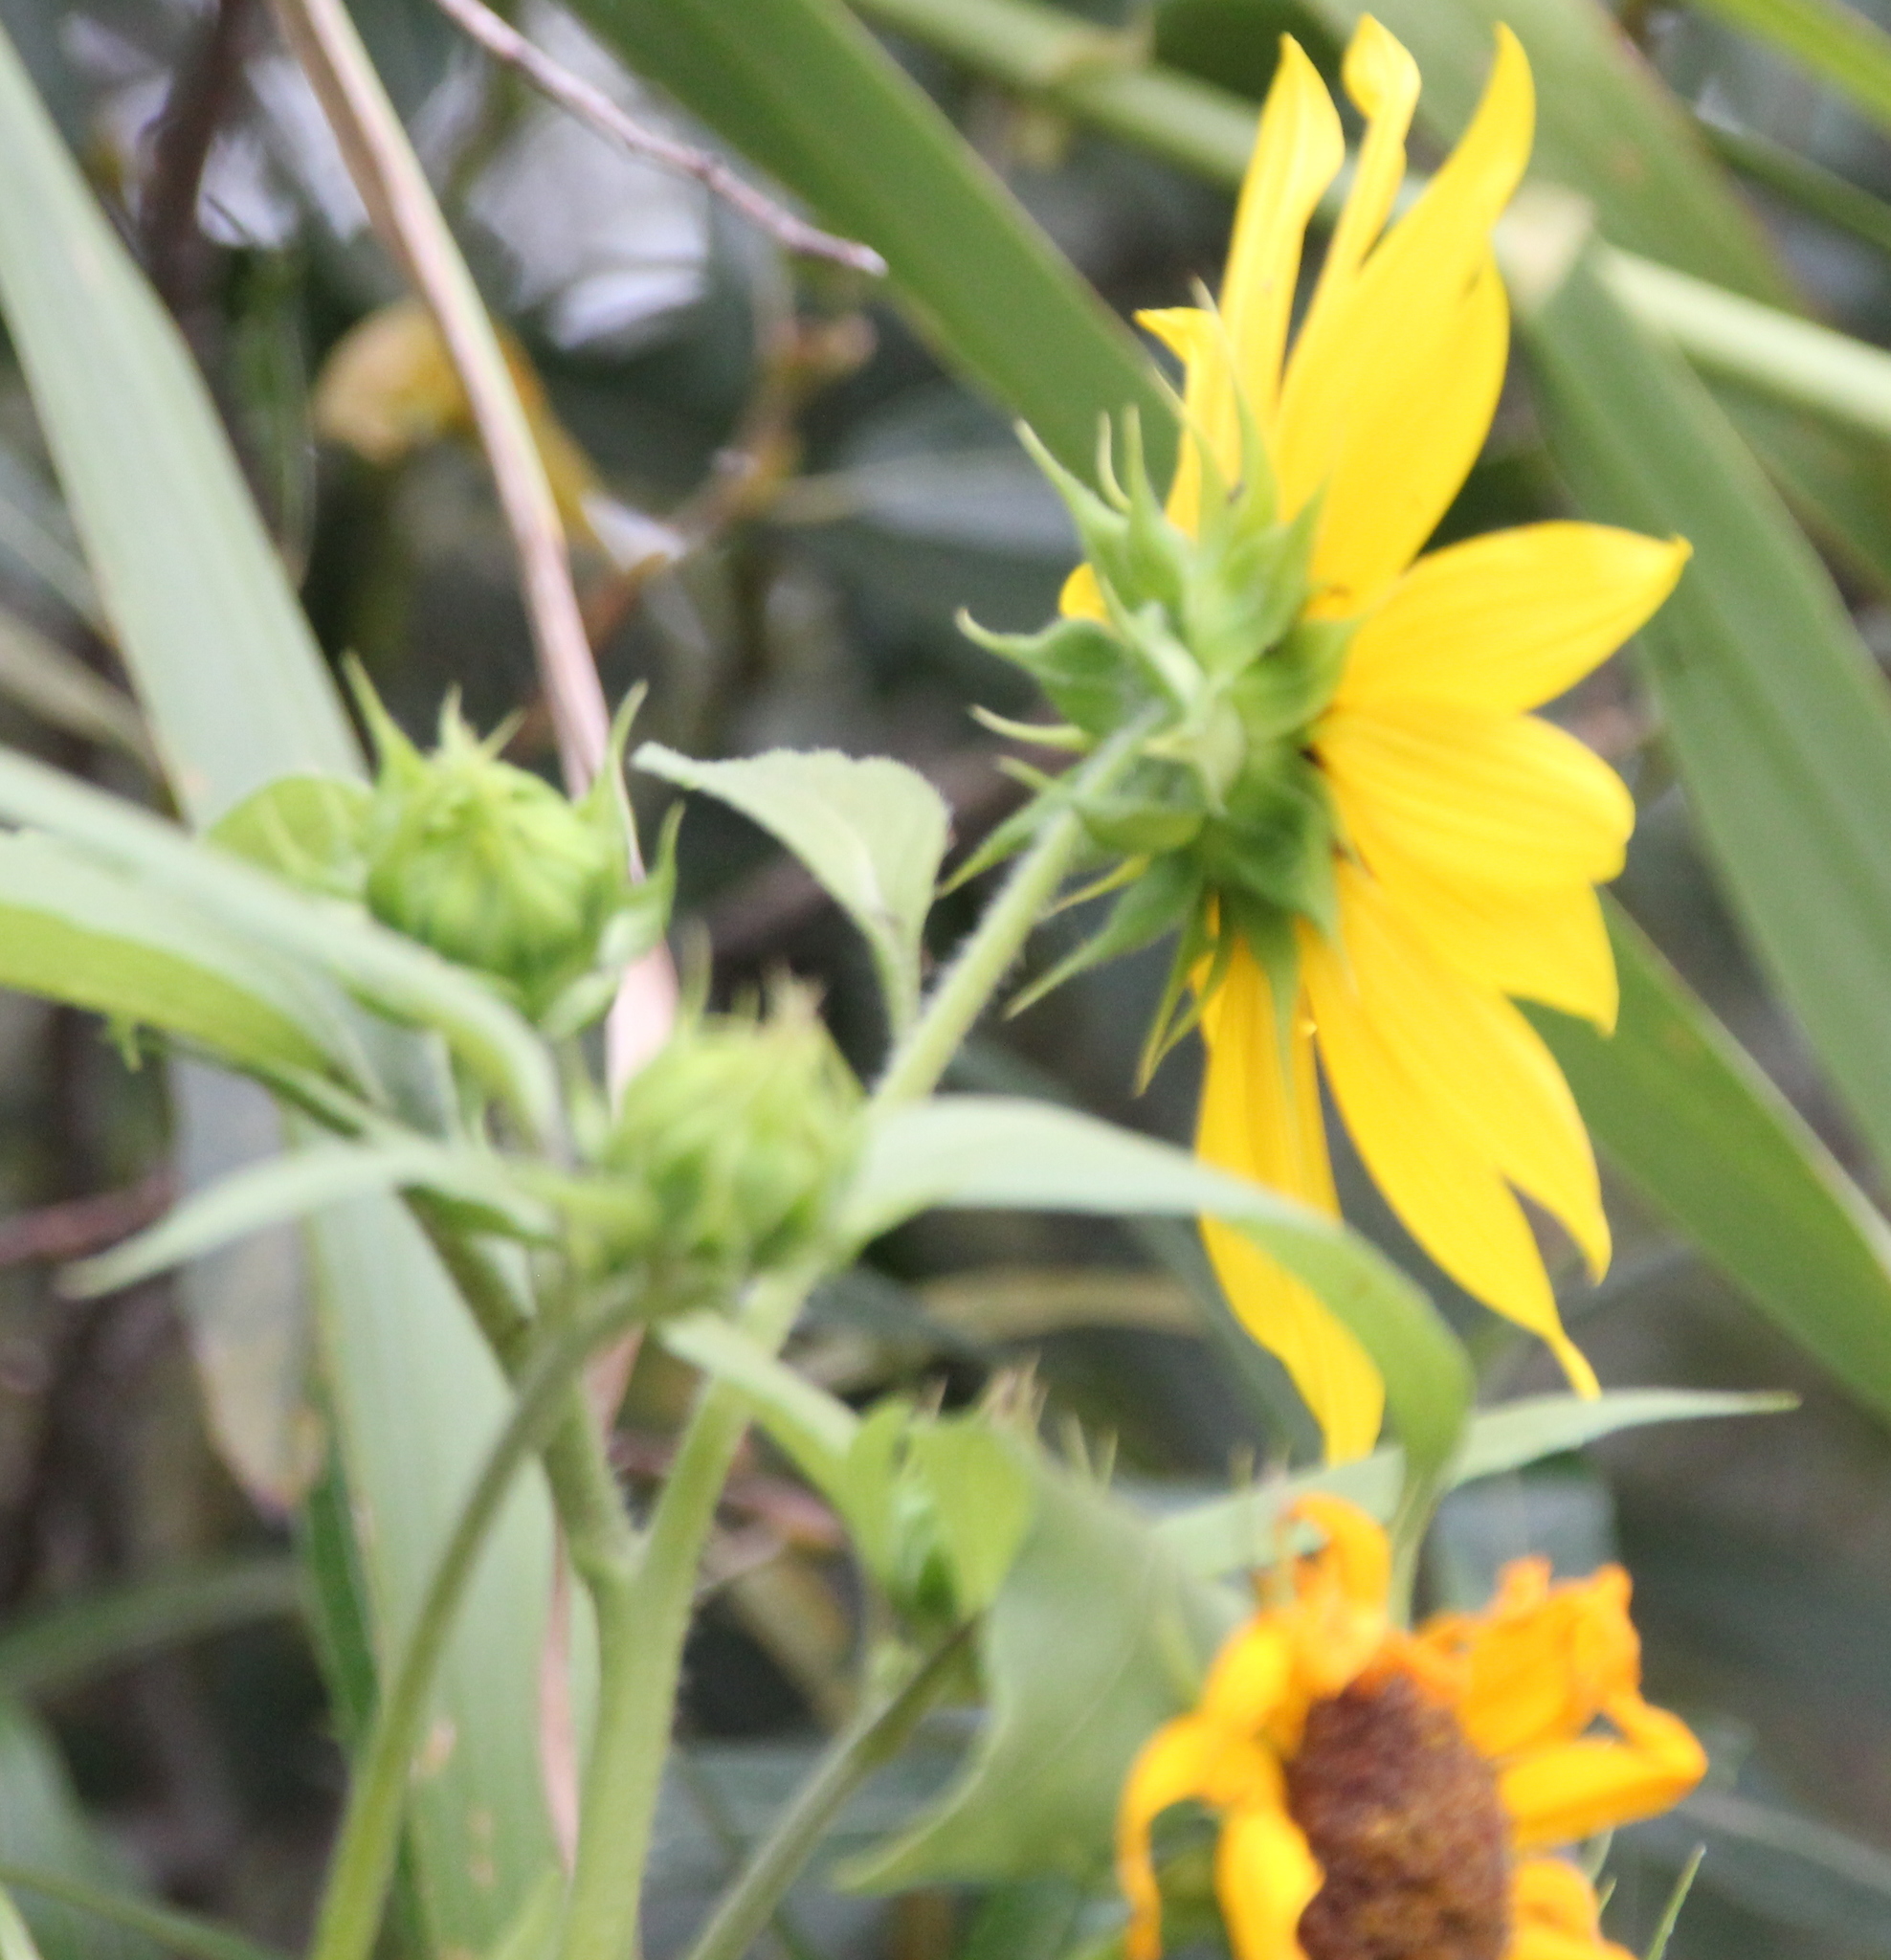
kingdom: Plantae
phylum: Tracheophyta
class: Magnoliopsida
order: Asterales
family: Asteraceae
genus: Helianthus
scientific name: Helianthus annuus
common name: Sunflower
